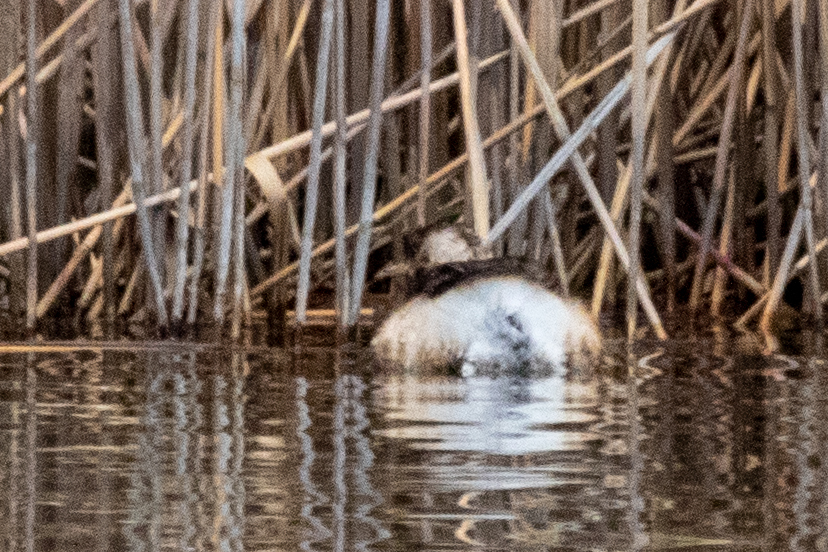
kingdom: Animalia
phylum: Chordata
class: Aves
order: Podicipediformes
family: Podicipedidae
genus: Tachybaptus
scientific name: Tachybaptus ruficollis
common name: Little grebe
